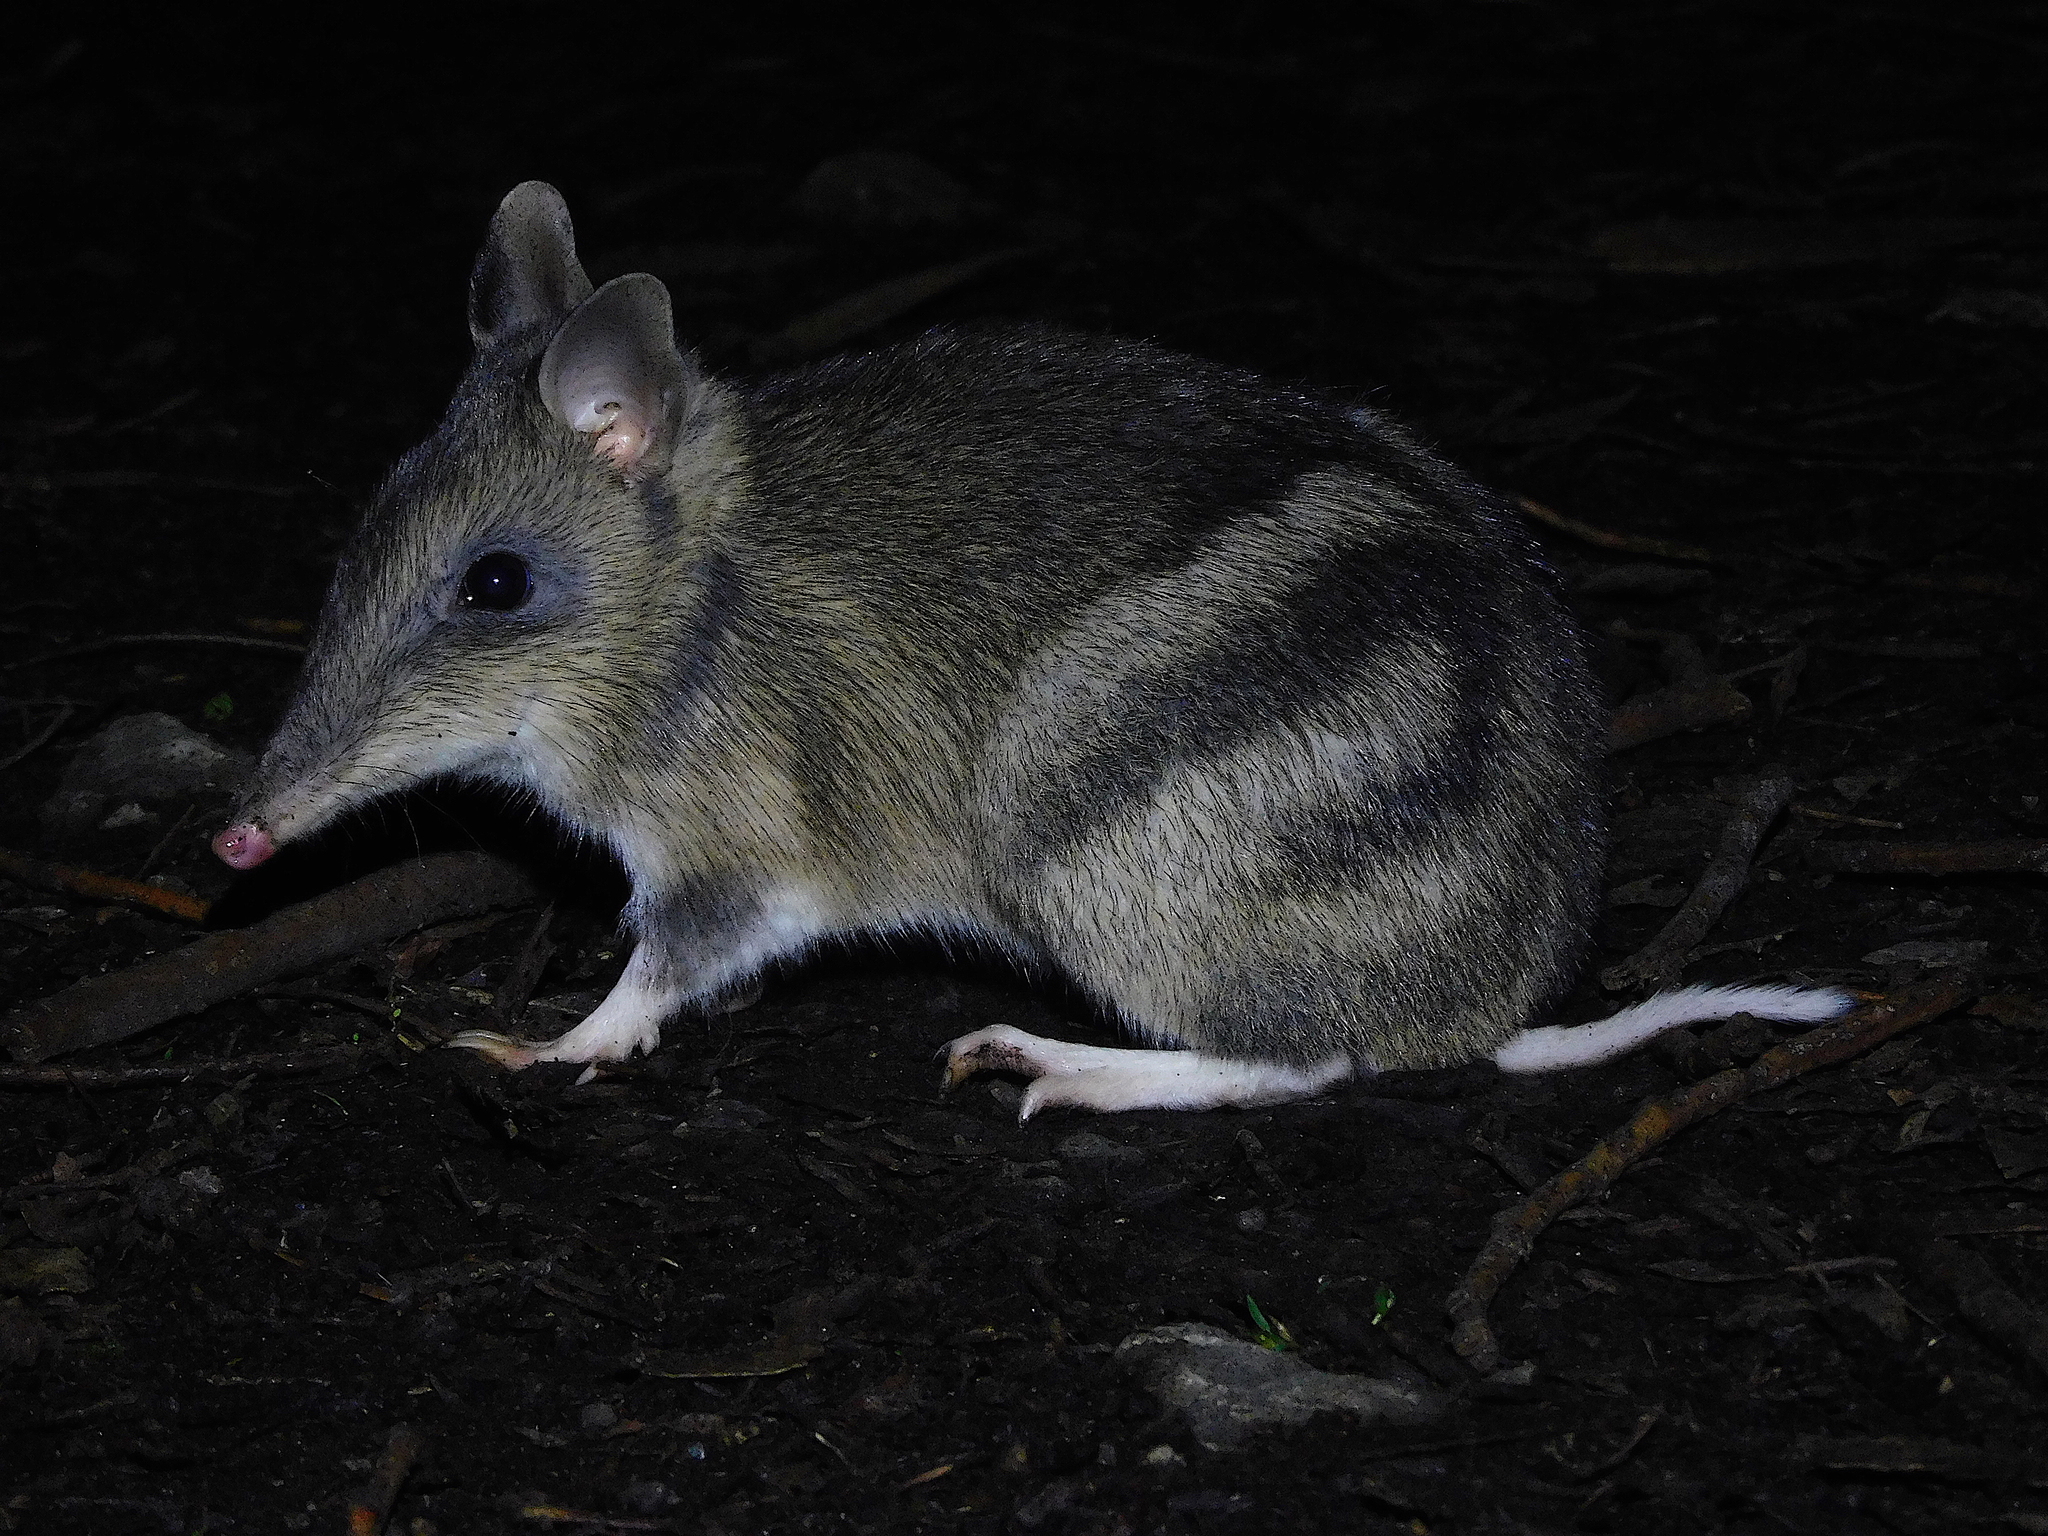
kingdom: Animalia
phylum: Chordata
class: Mammalia
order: Peramelemorphia
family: Peramelidae
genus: Perameles
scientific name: Perameles gunnii
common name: Eastern barred bandicoot
